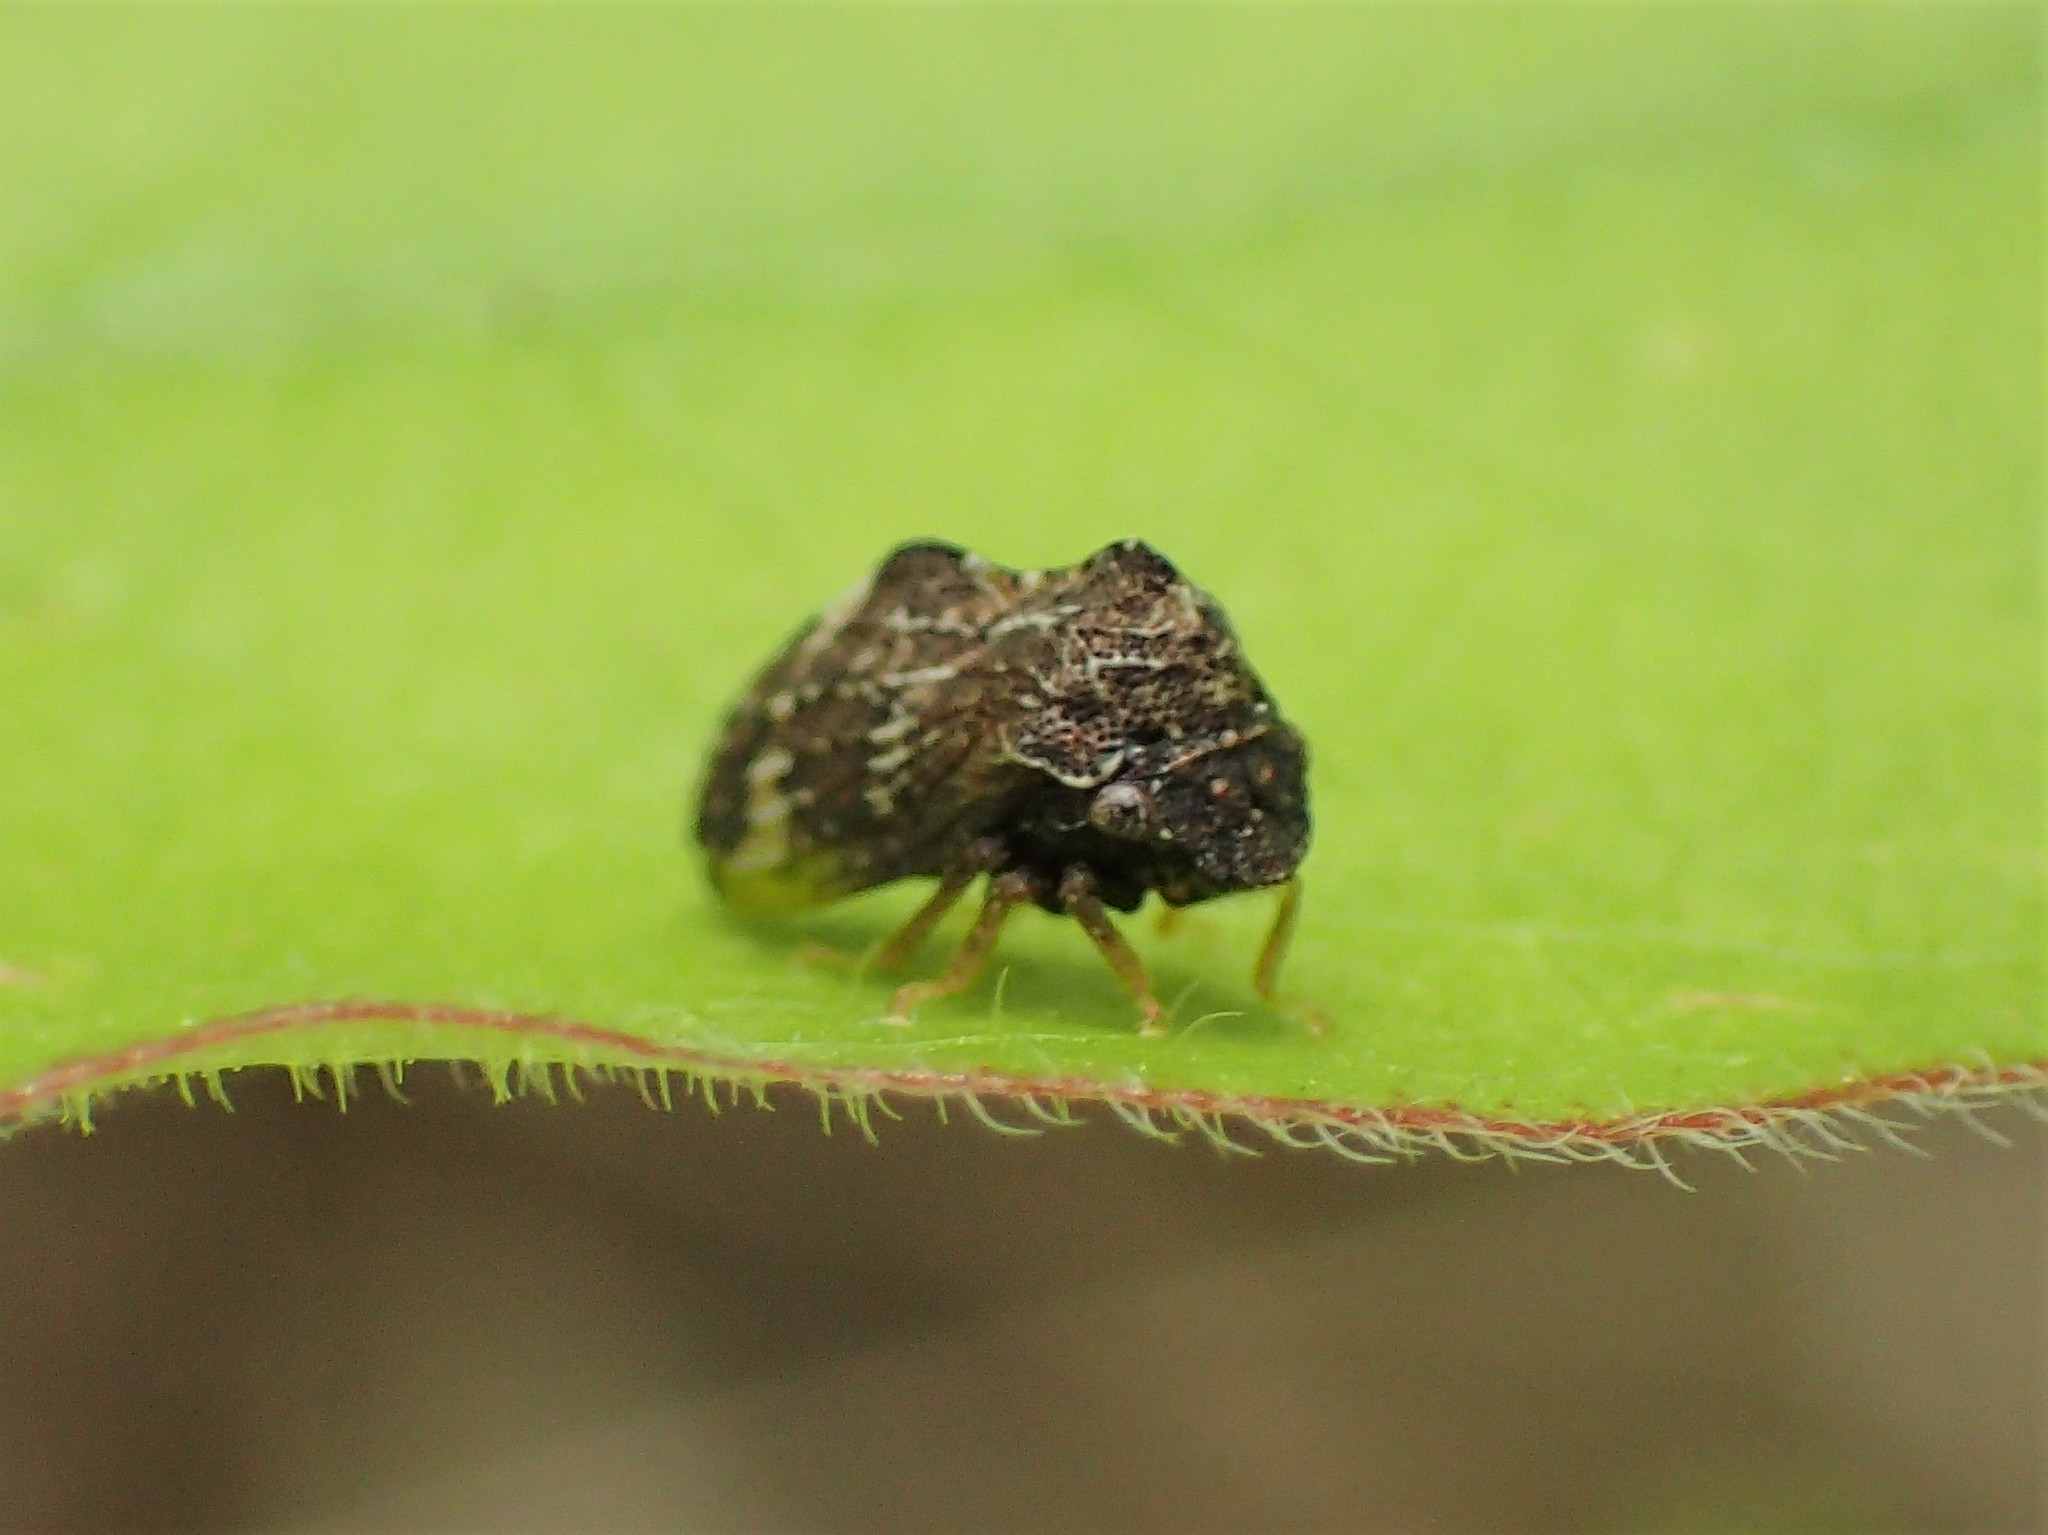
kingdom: Animalia
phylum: Arthropoda
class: Insecta
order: Hemiptera
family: Membracidae
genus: Publilia
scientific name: Publilia concava
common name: Aster treehopper
